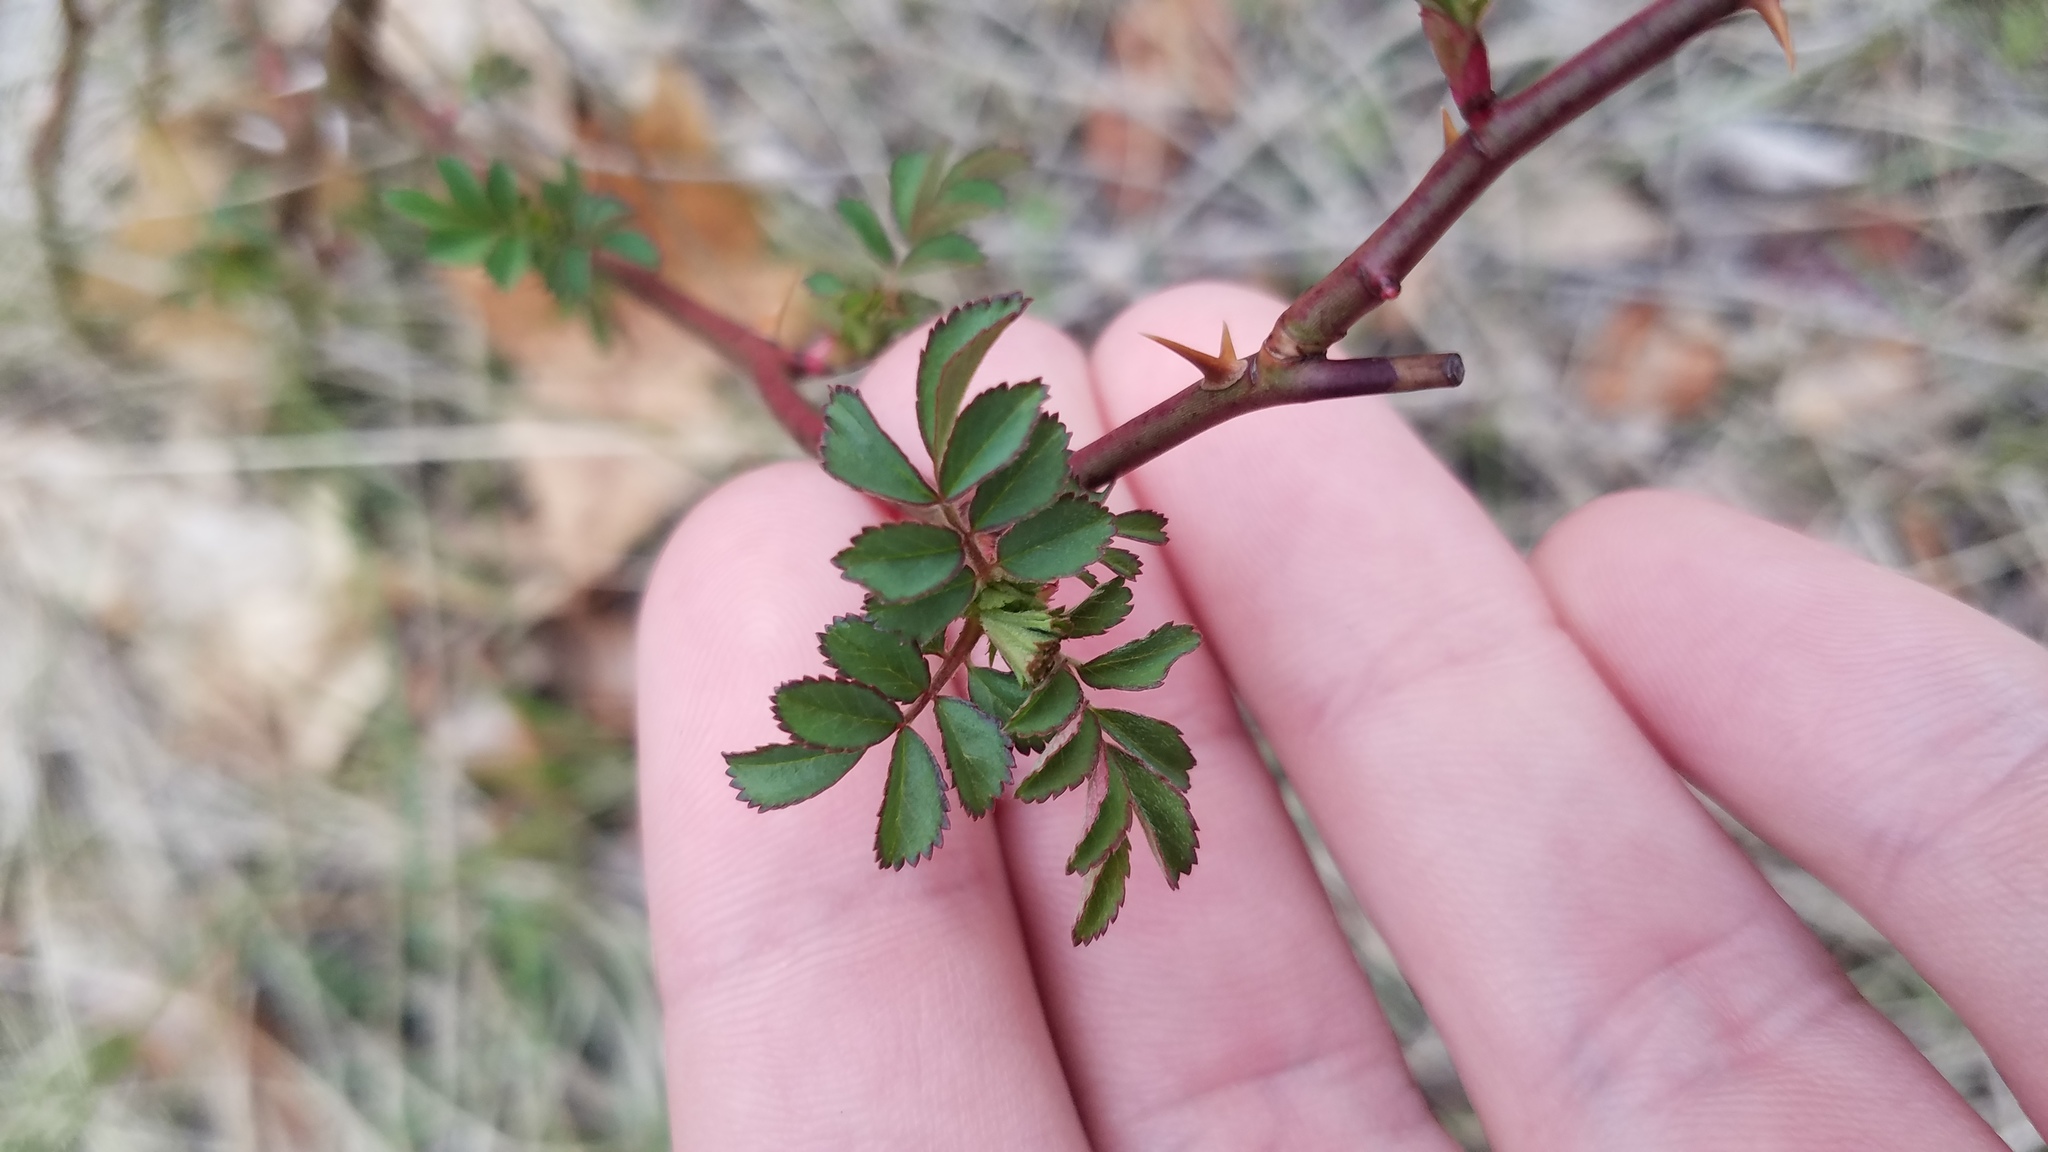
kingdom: Plantae
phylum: Tracheophyta
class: Magnoliopsida
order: Rosales
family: Rosaceae
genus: Rosa
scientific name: Rosa multiflora
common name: Multiflora rose
